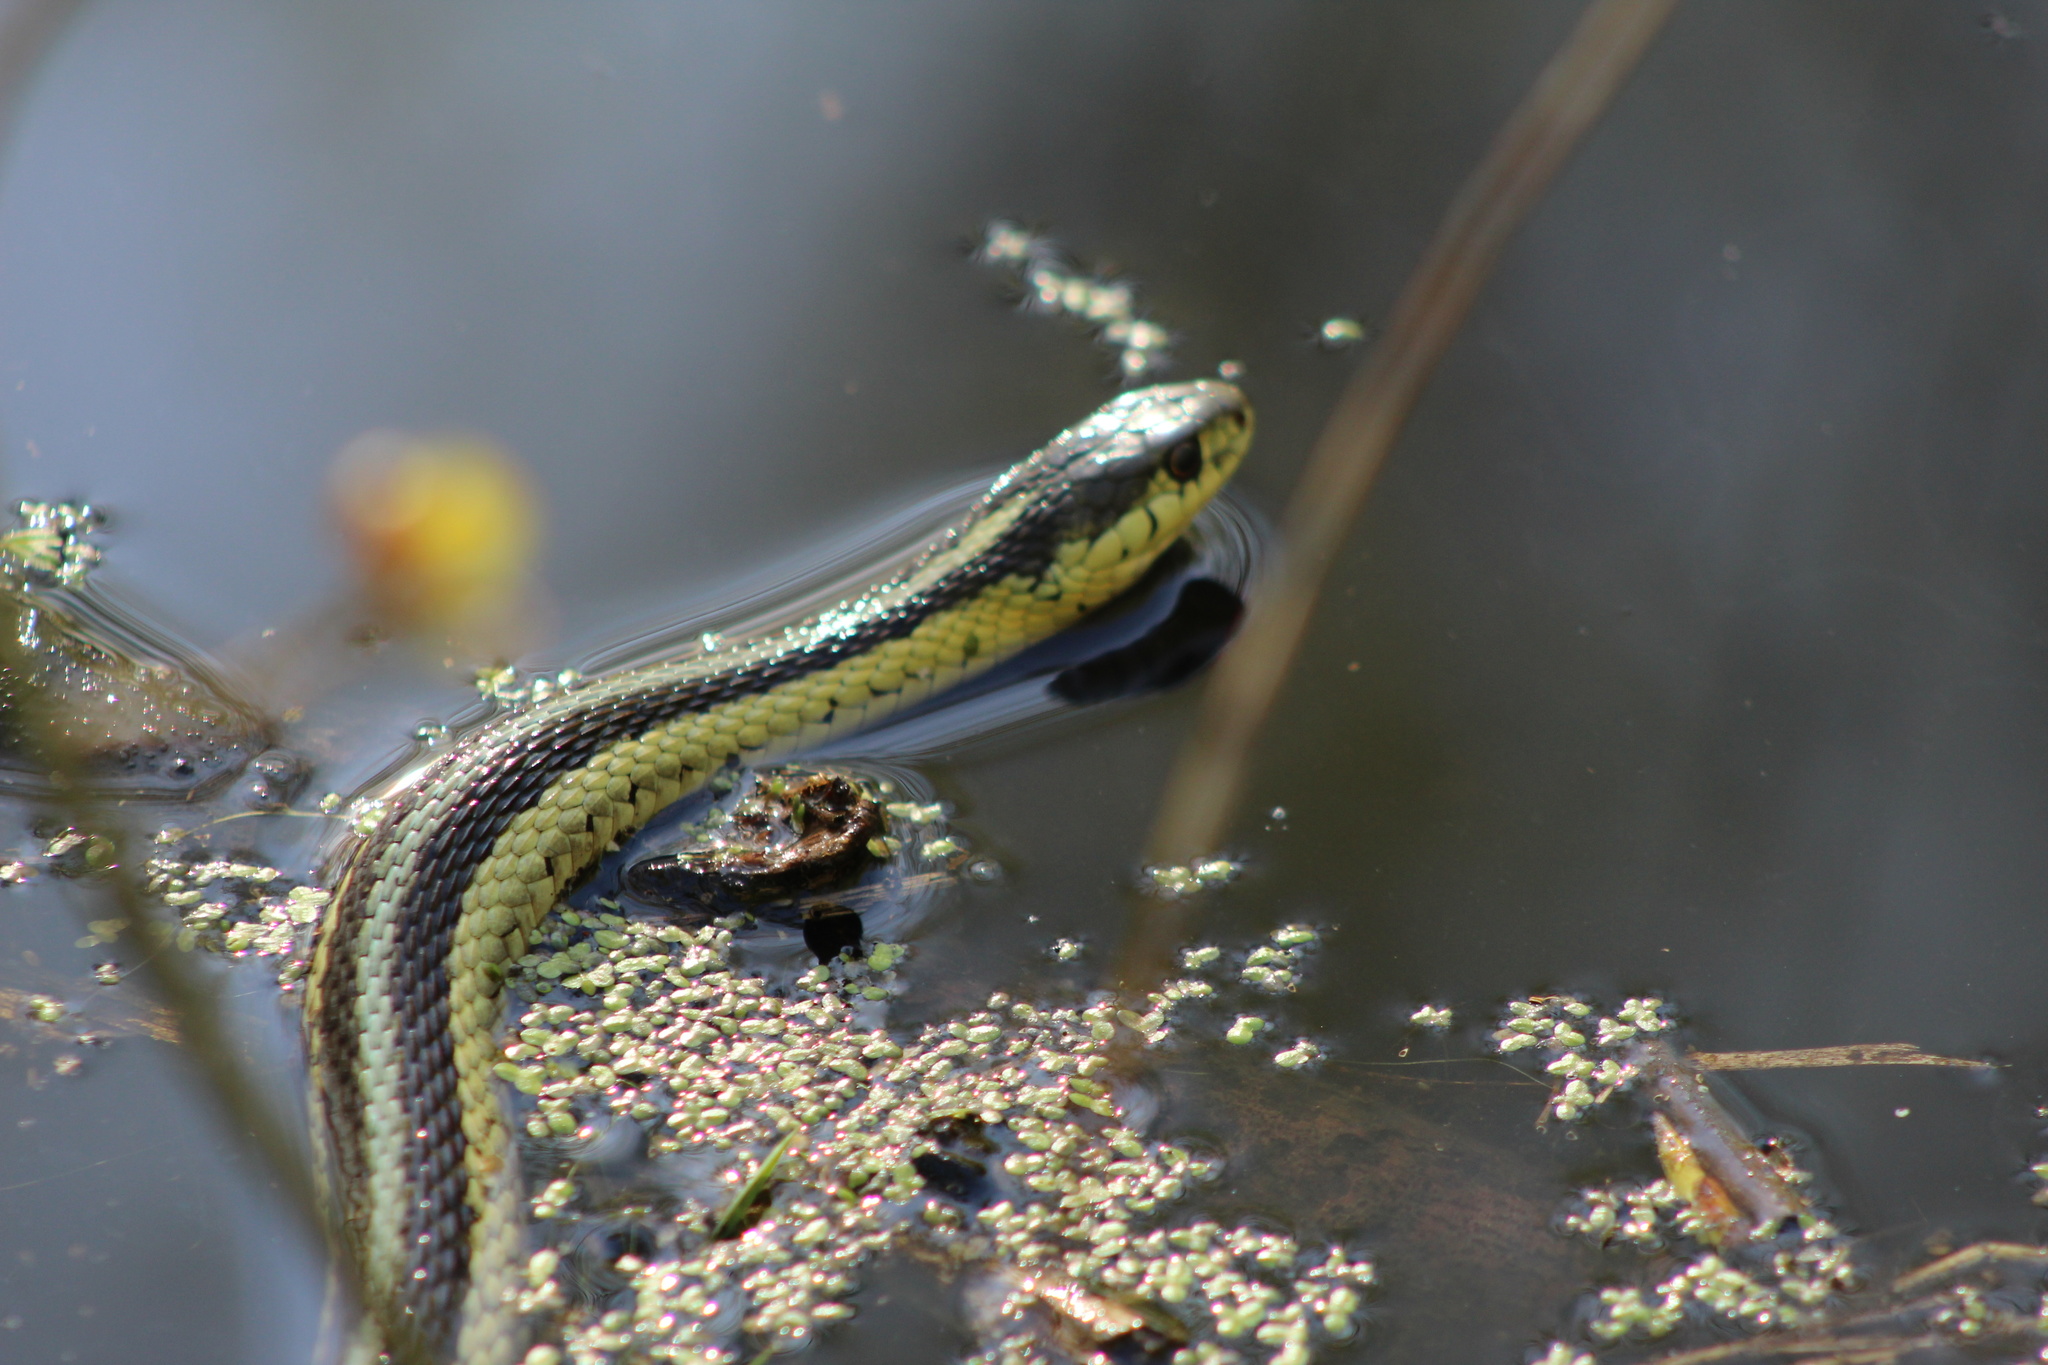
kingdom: Animalia
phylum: Chordata
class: Squamata
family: Colubridae
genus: Thamnophis
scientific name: Thamnophis sirtalis
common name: Common garter snake
